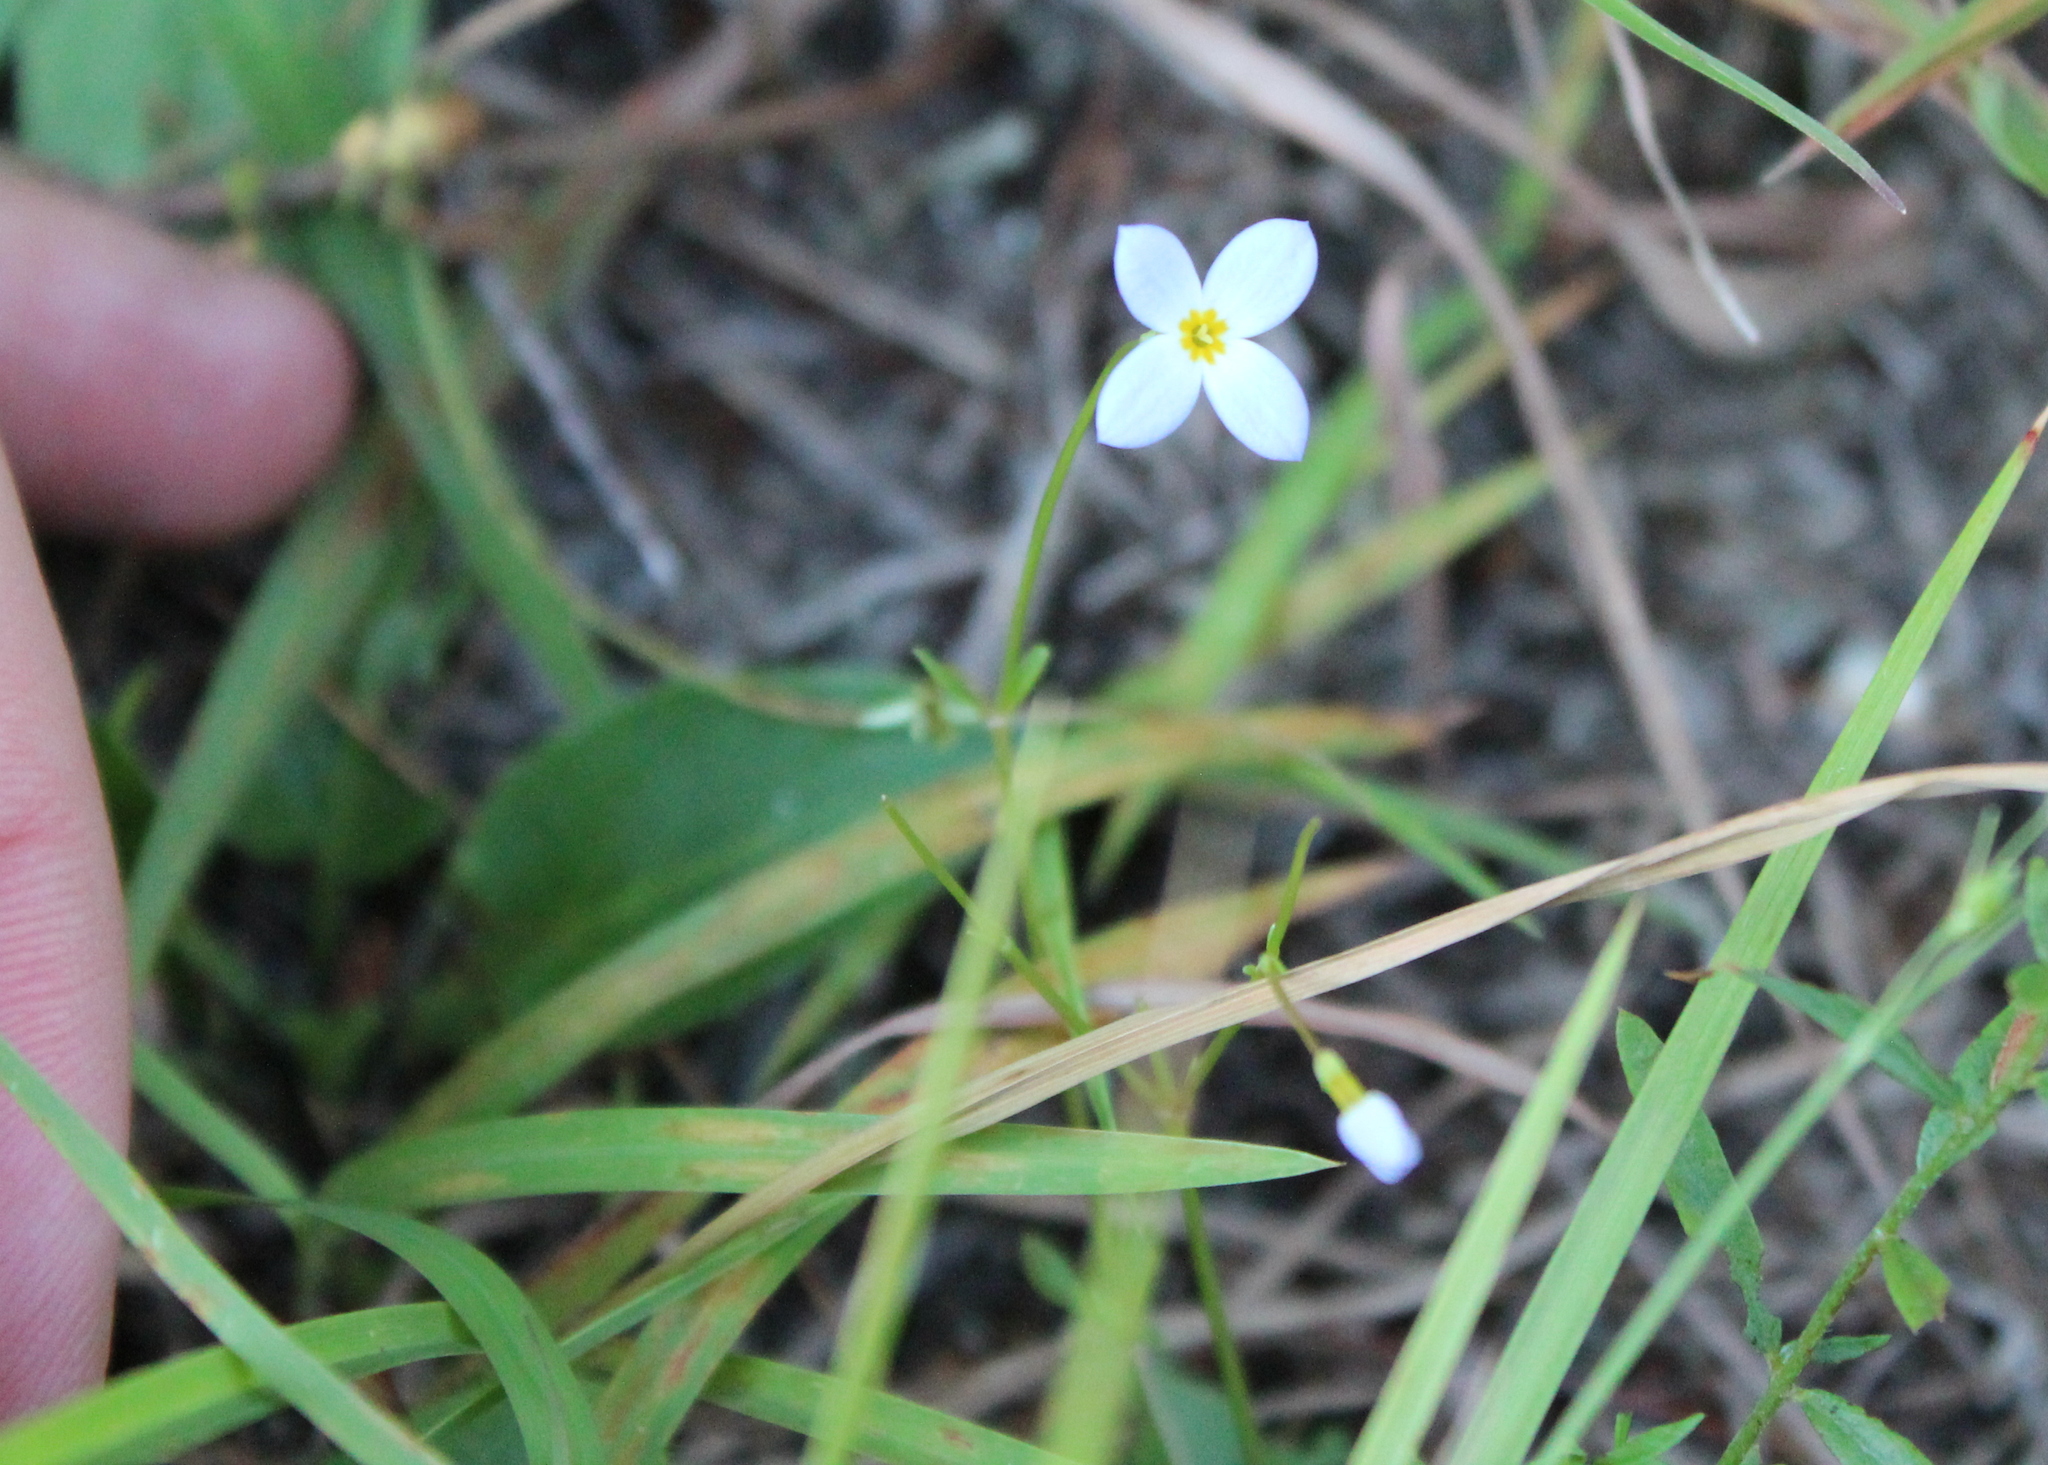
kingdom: Plantae
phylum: Tracheophyta
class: Magnoliopsida
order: Gentianales
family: Rubiaceae
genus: Houstonia
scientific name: Houstonia caerulea
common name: Bluets
